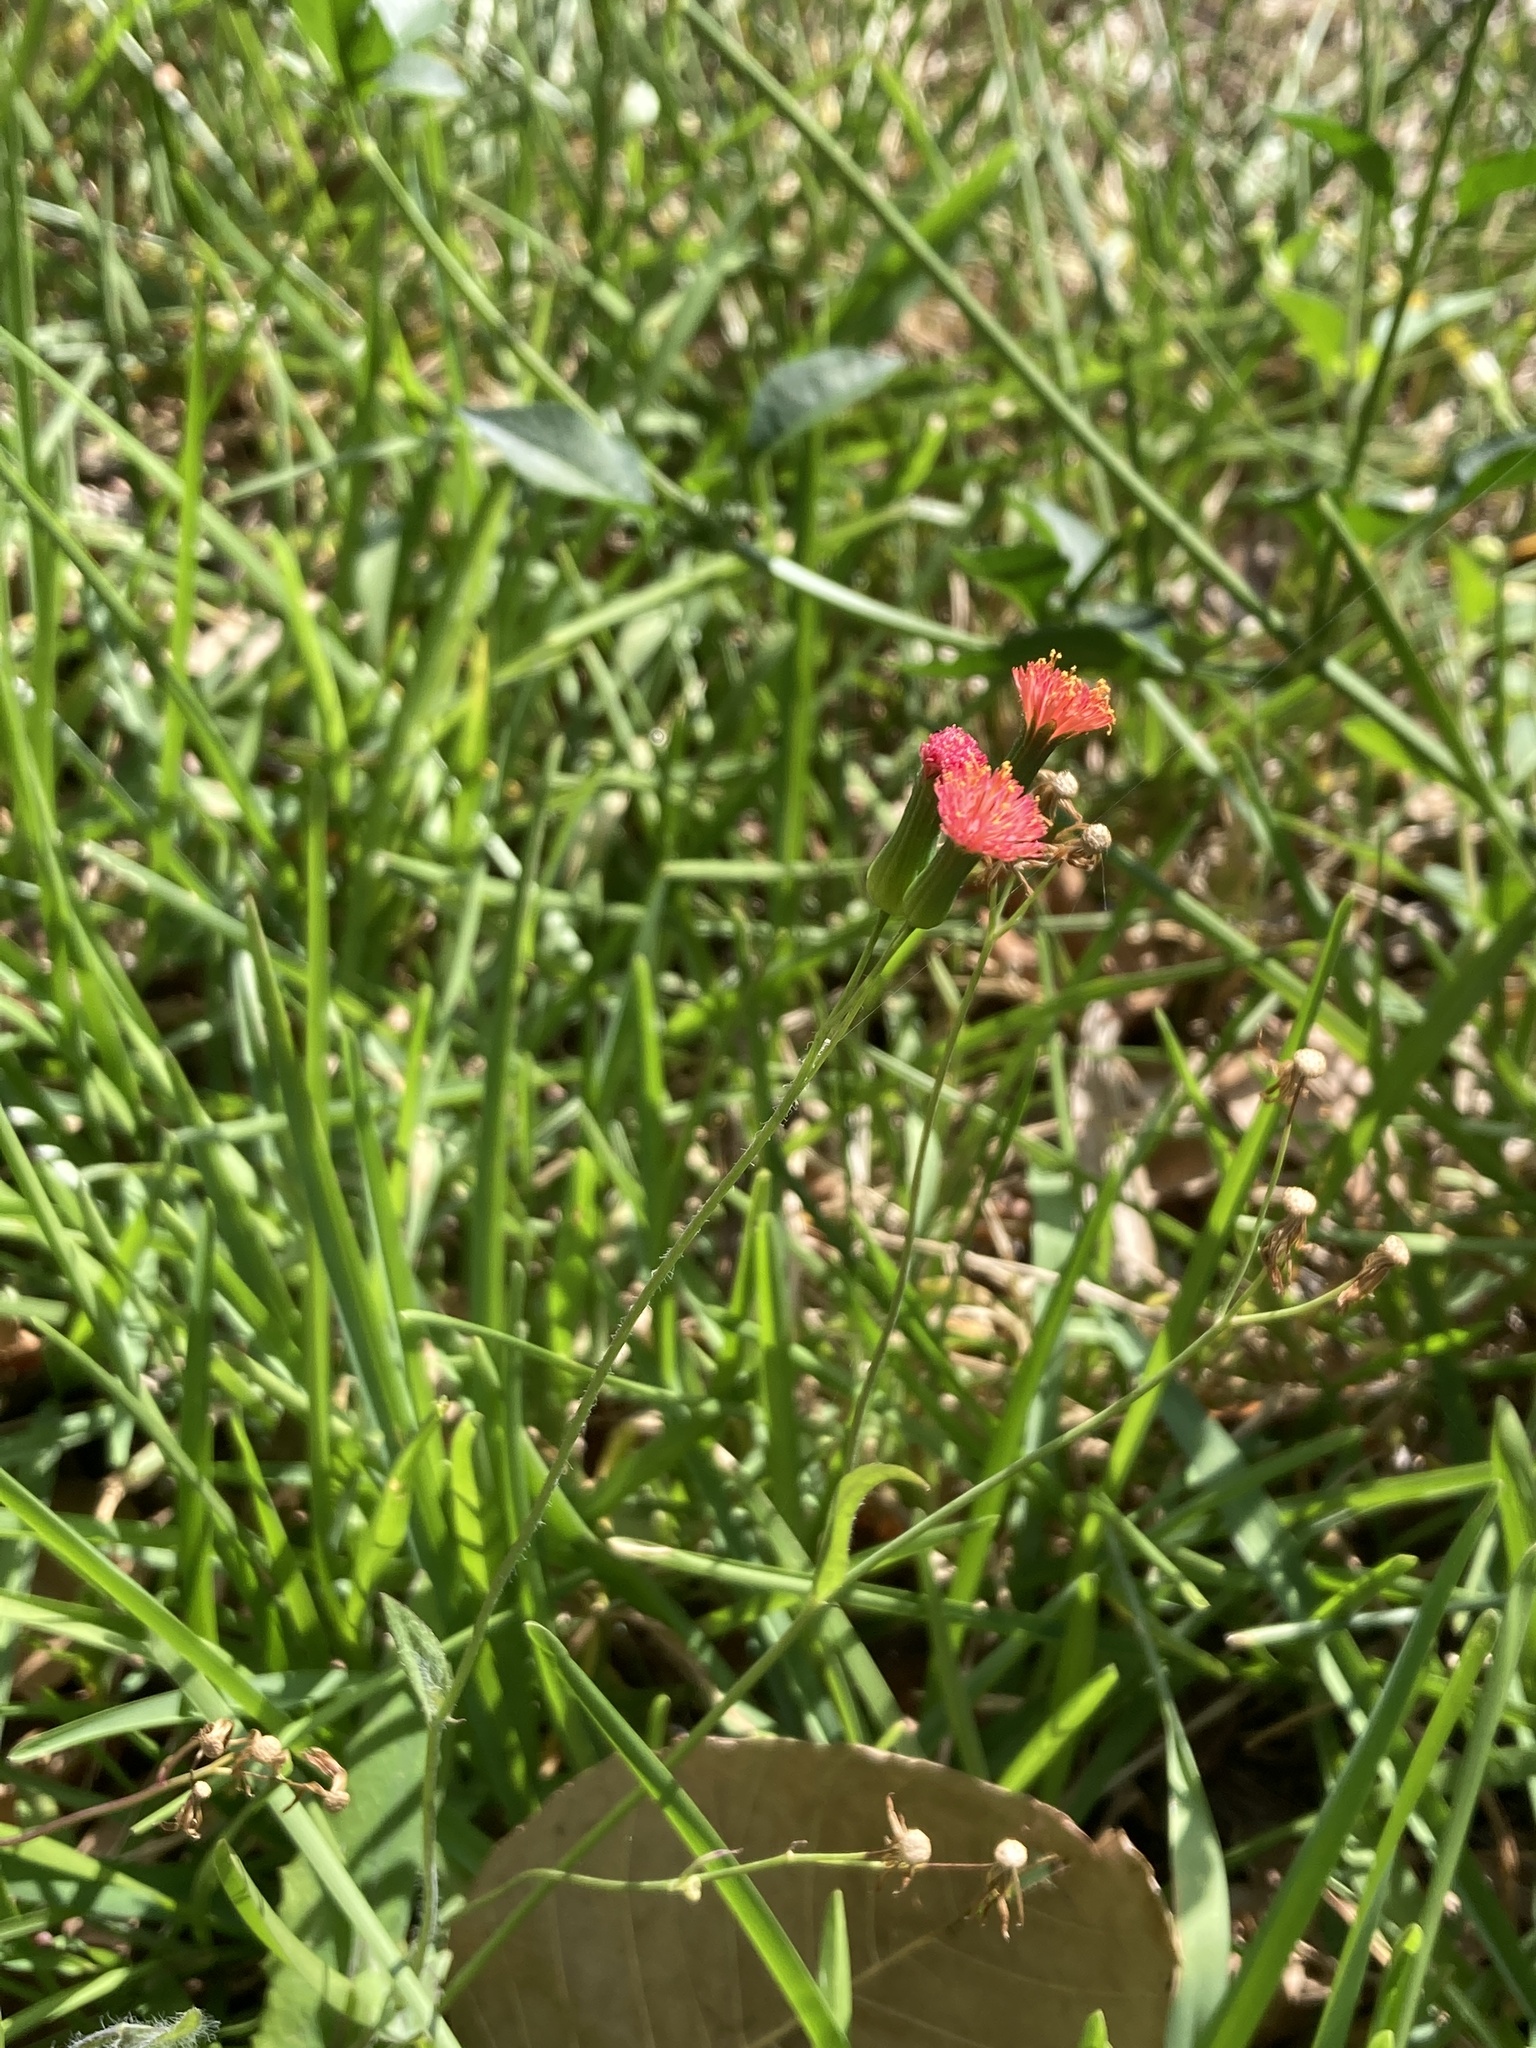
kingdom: Plantae
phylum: Tracheophyta
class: Magnoliopsida
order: Asterales
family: Asteraceae
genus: Emilia
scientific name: Emilia fosbergii
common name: Florida tasselflower
